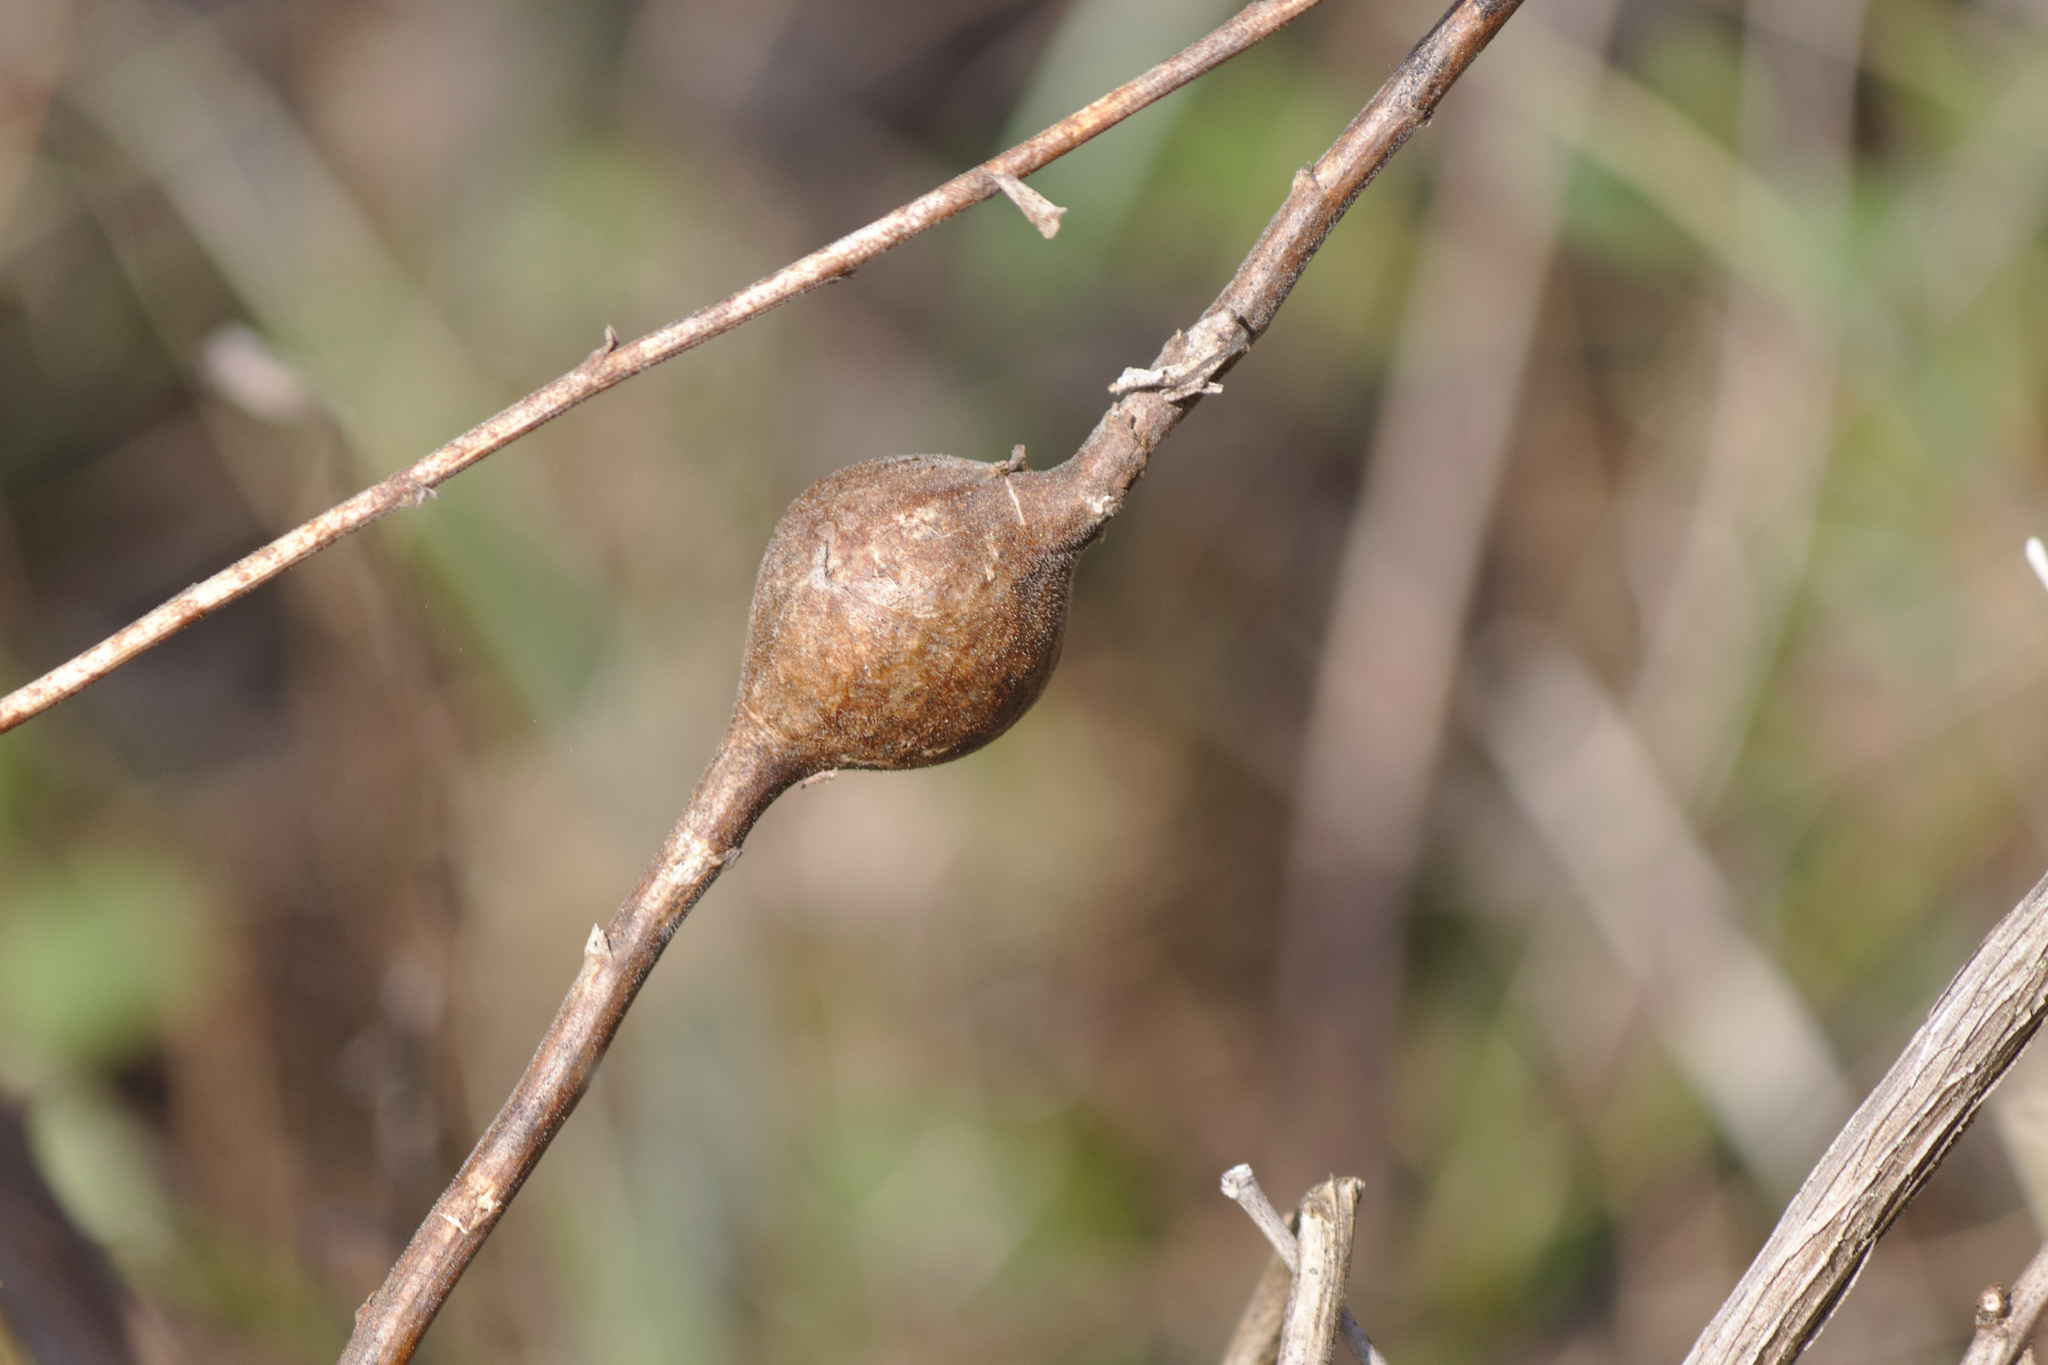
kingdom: Animalia
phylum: Arthropoda
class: Insecta
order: Diptera
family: Tephritidae
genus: Eurosta
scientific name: Eurosta solidaginis
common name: Goldenrod gall fly
